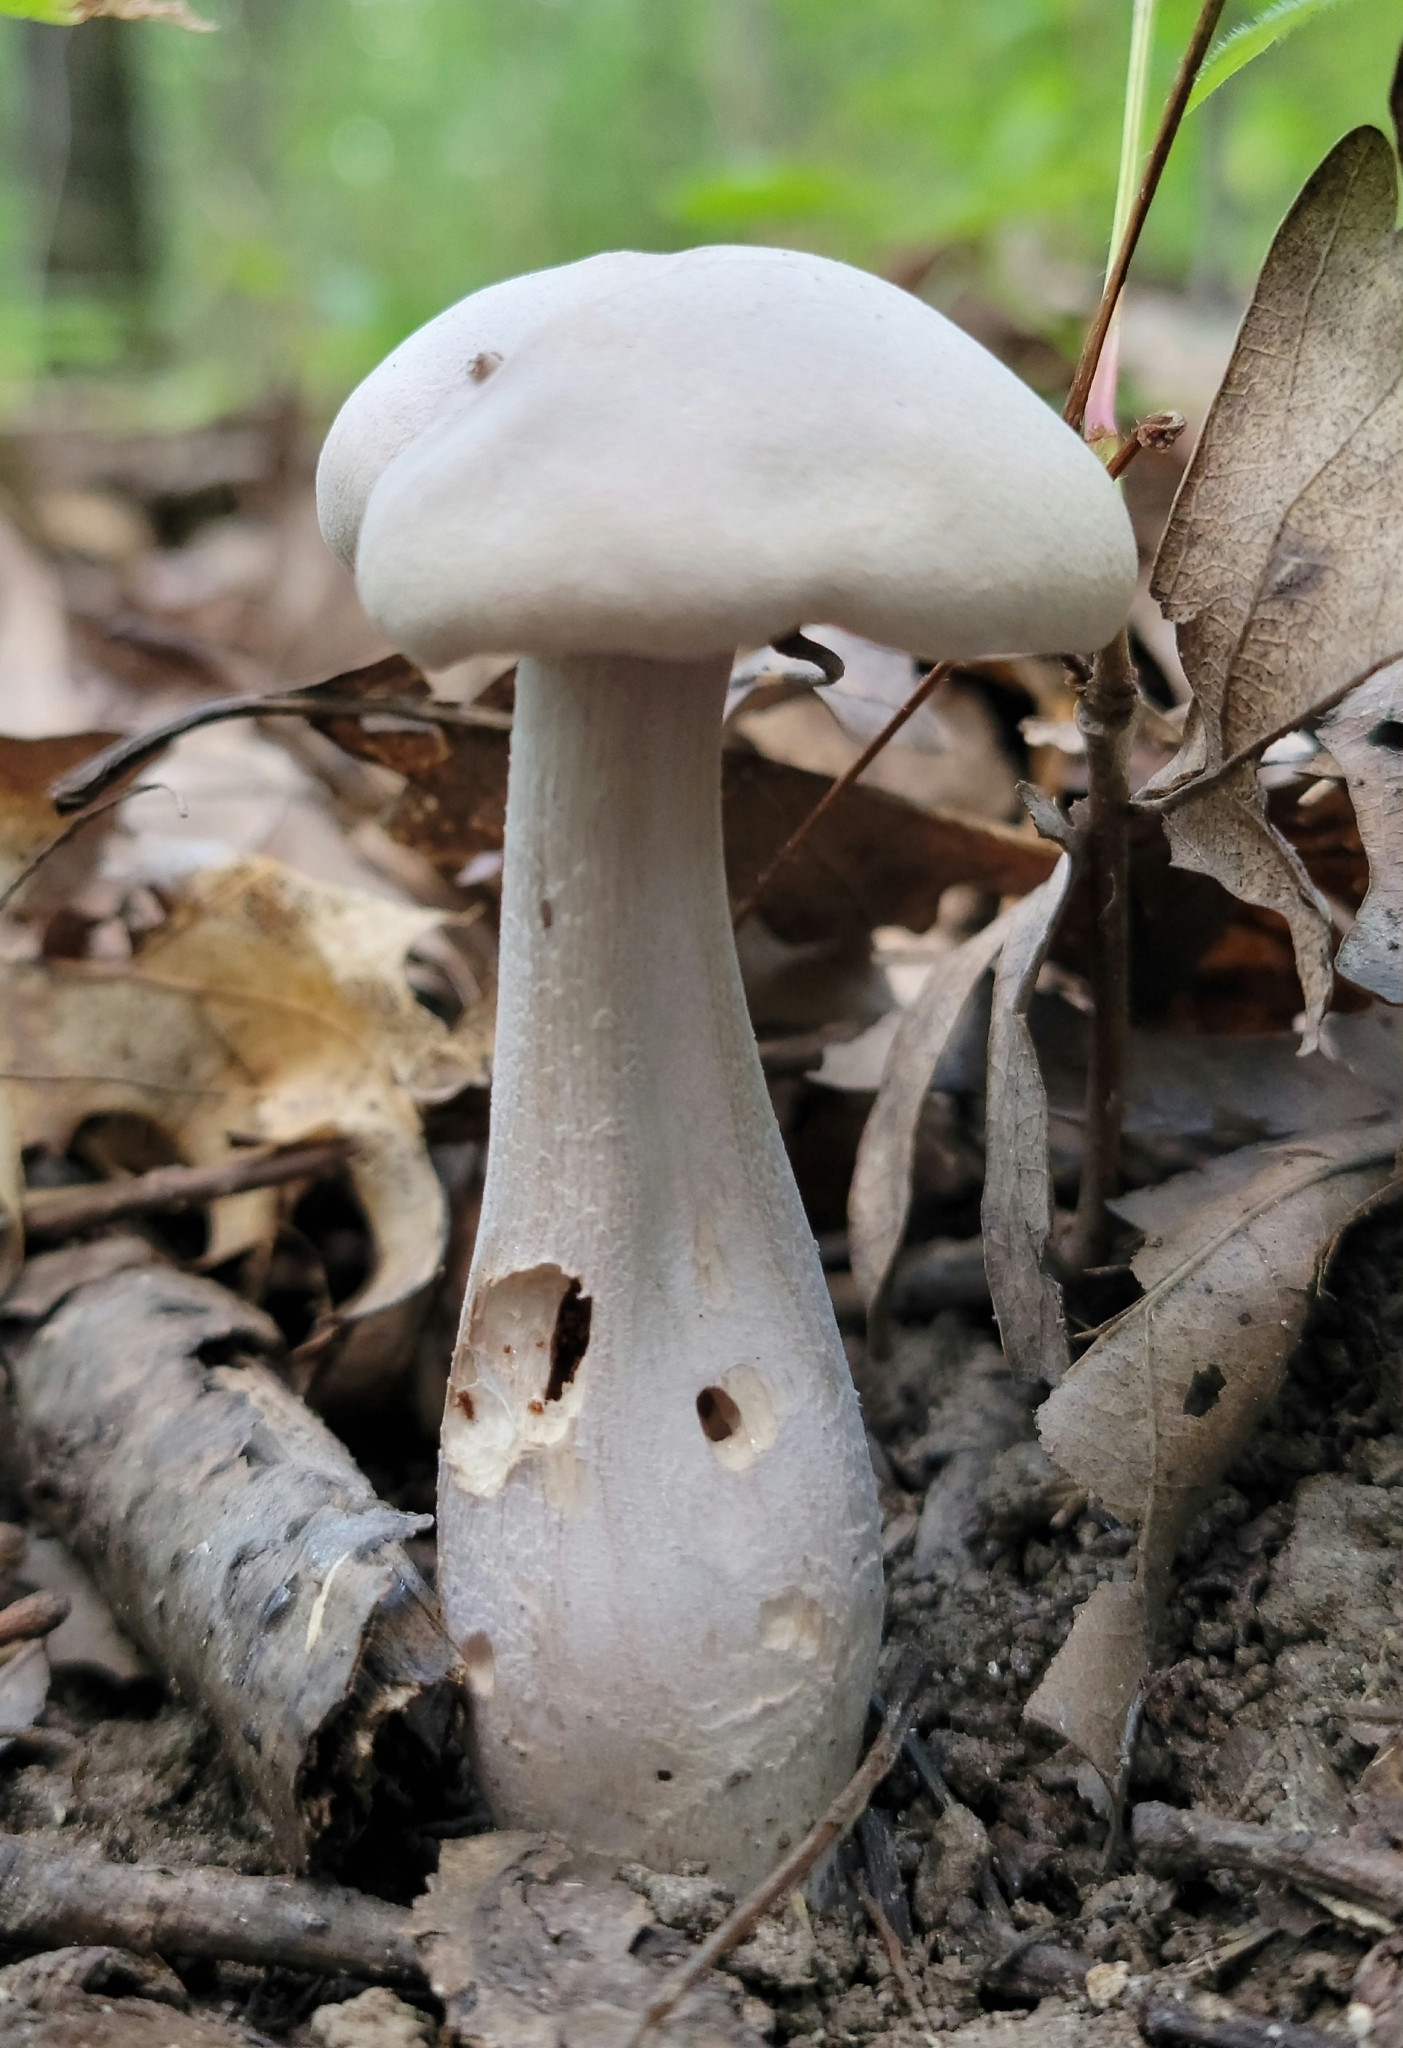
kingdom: Fungi
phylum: Basidiomycota
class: Agaricomycetes
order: Agaricales
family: Hydnangiaceae
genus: Laccaria
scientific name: Laccaria ochropurpurea
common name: Purple laccaria
